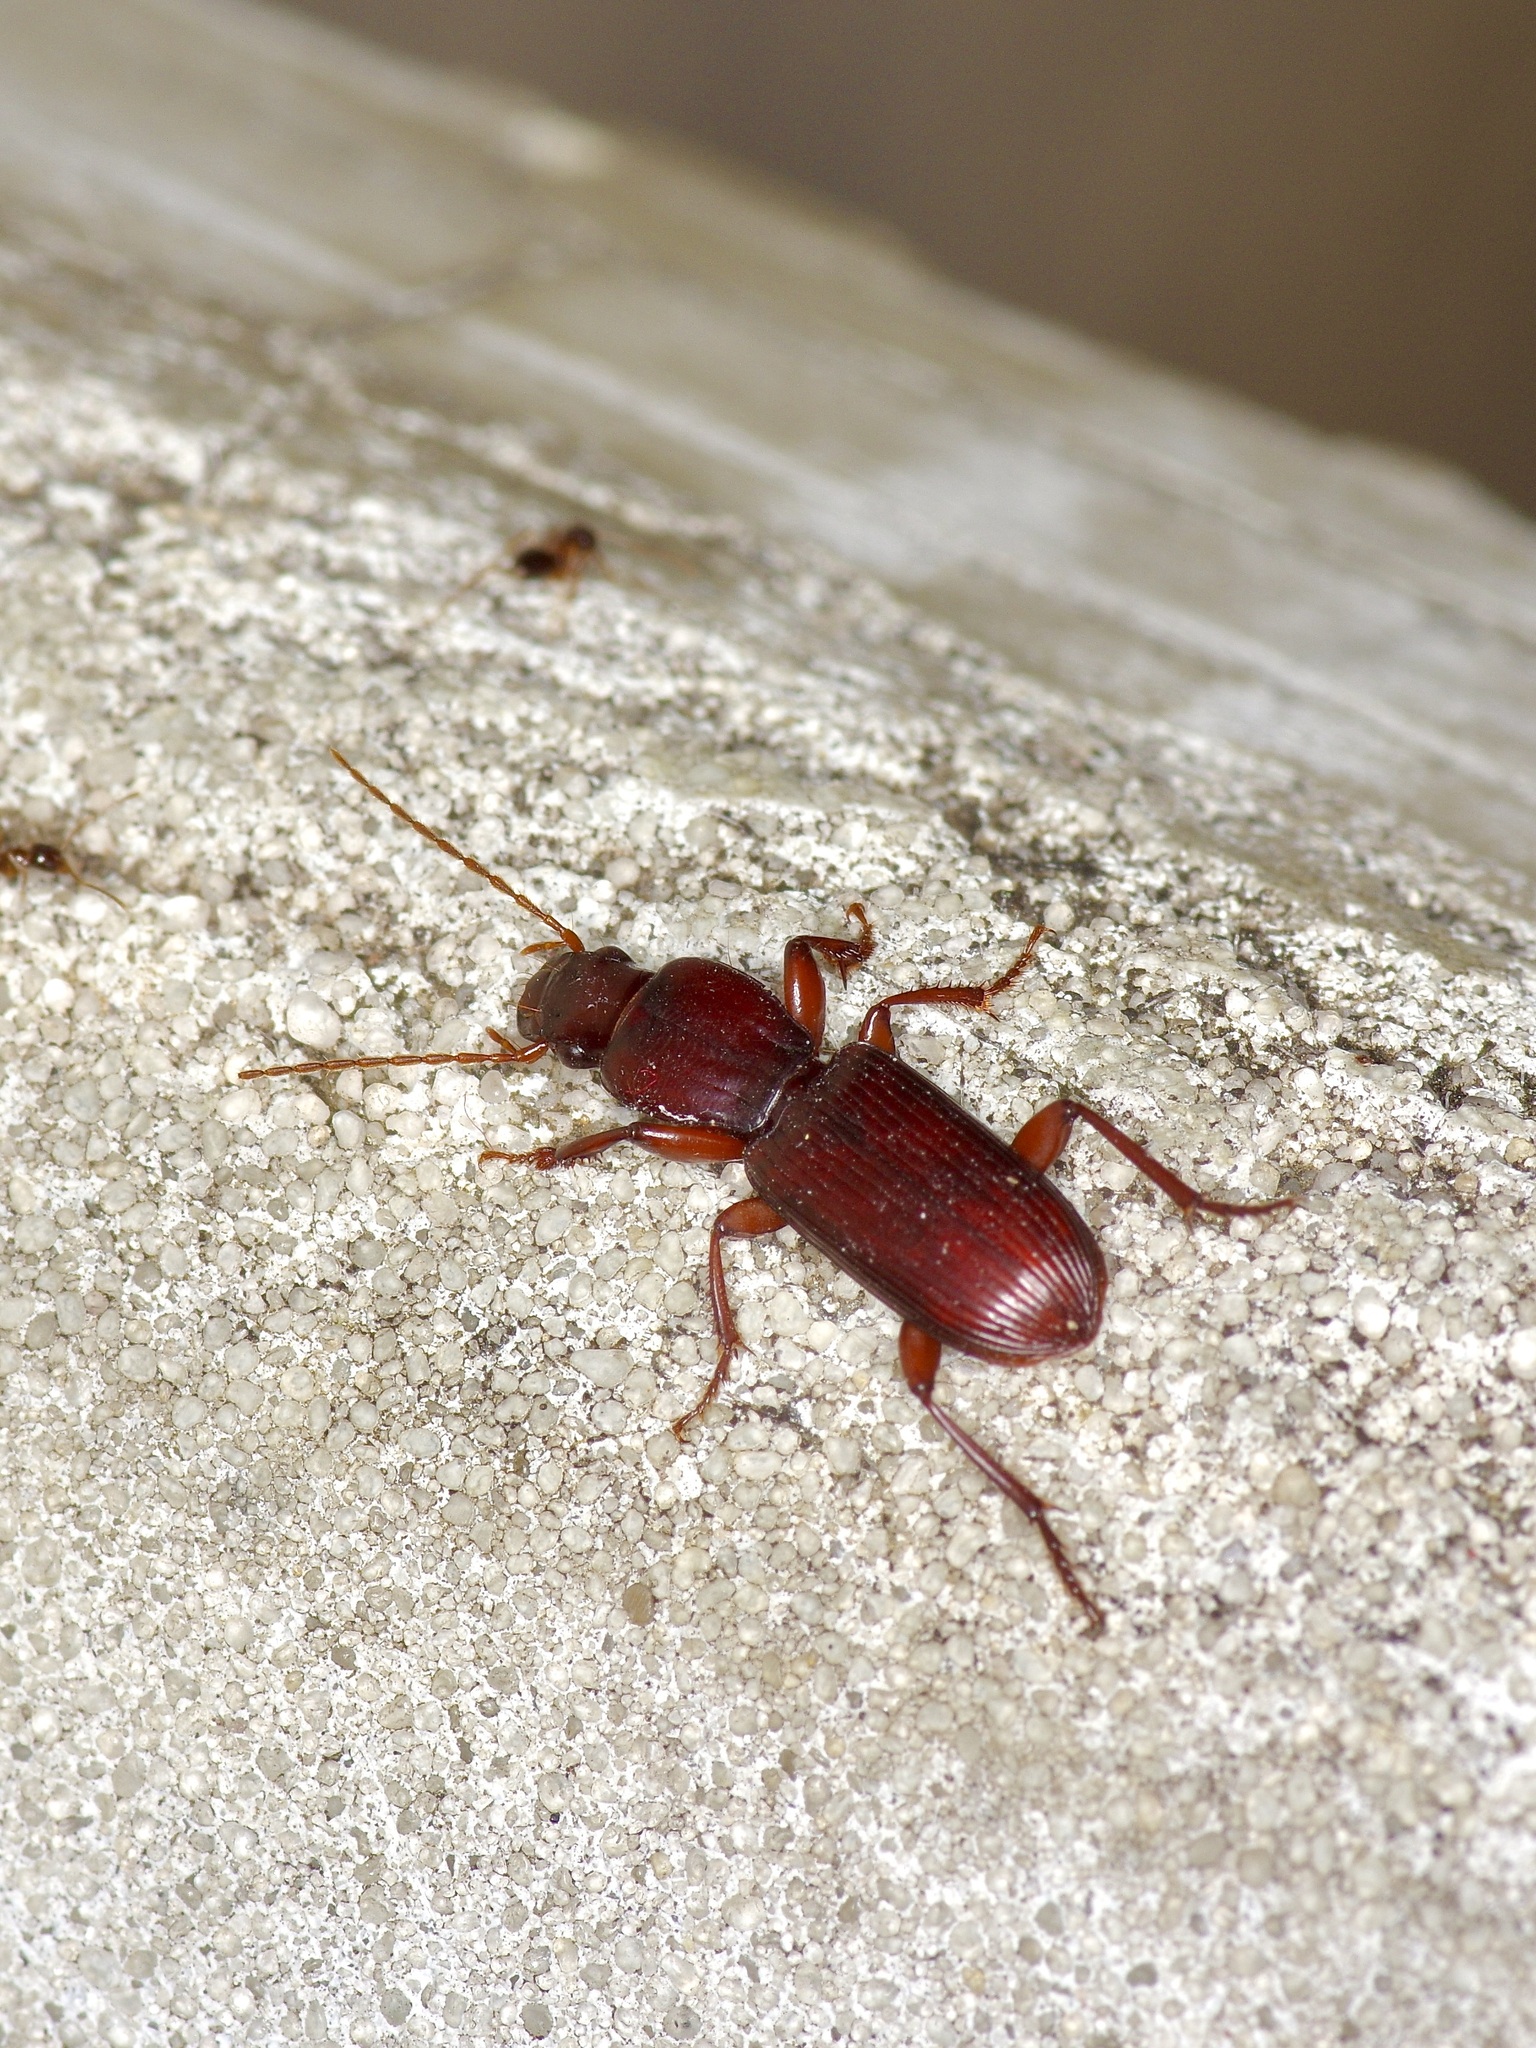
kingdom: Animalia
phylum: Arthropoda
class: Insecta
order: Coleoptera
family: Carabidae
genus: Stenomorphus
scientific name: Stenomorphus californicus
